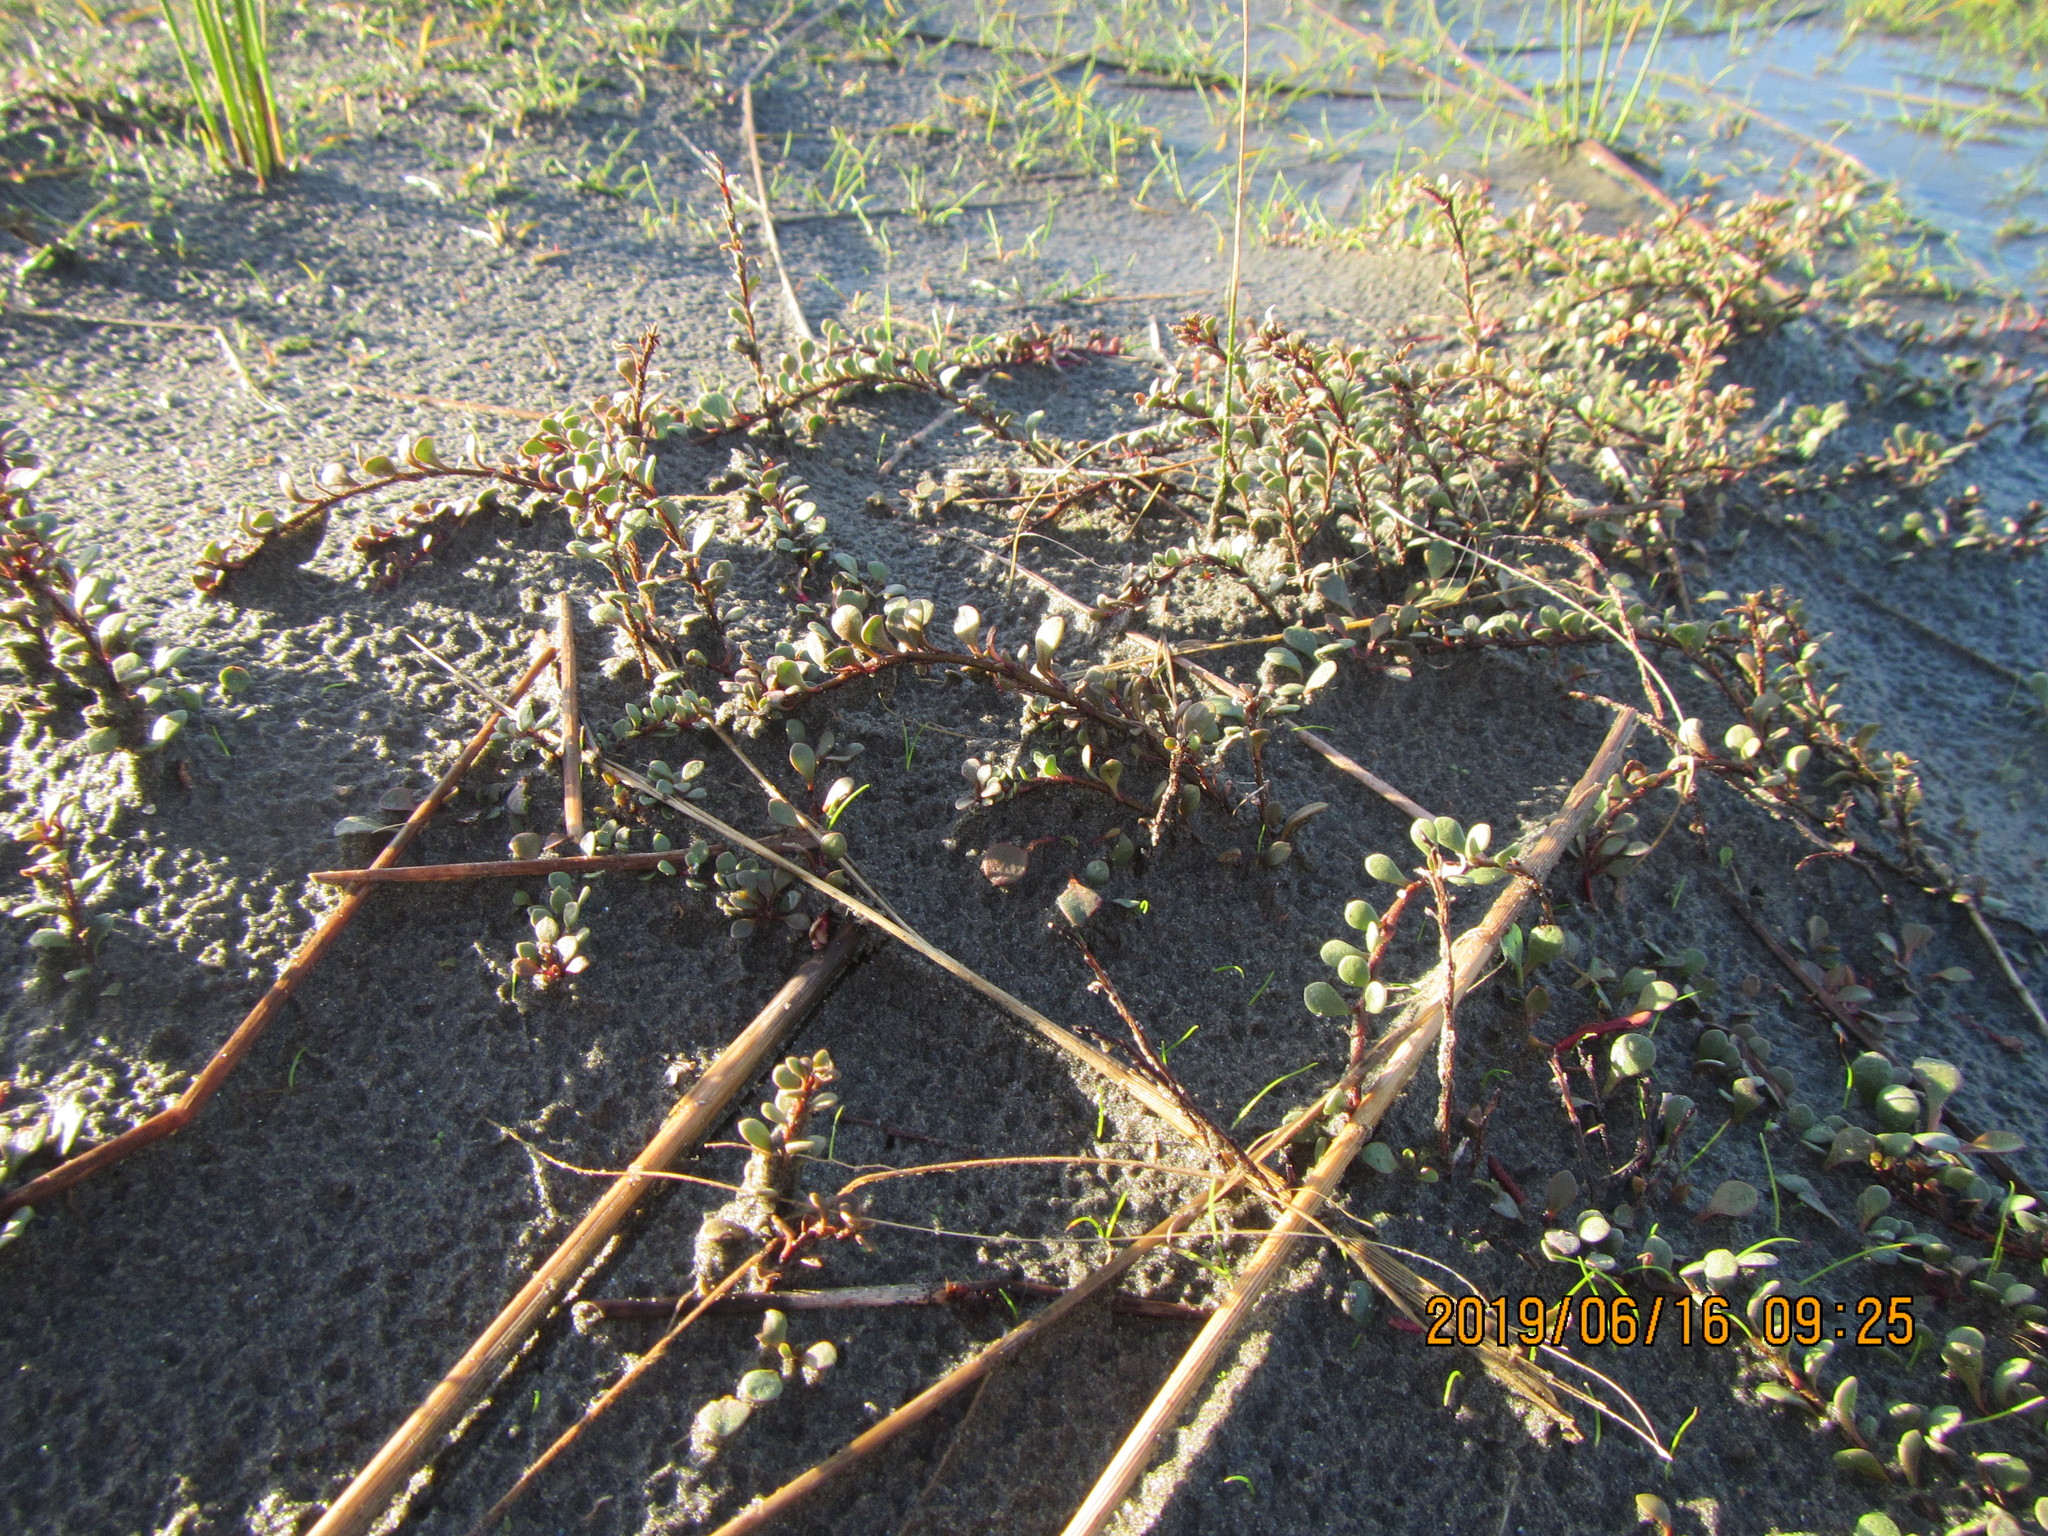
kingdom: Plantae
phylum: Tracheophyta
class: Magnoliopsida
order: Ericales
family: Primulaceae
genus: Samolus
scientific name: Samolus repens
